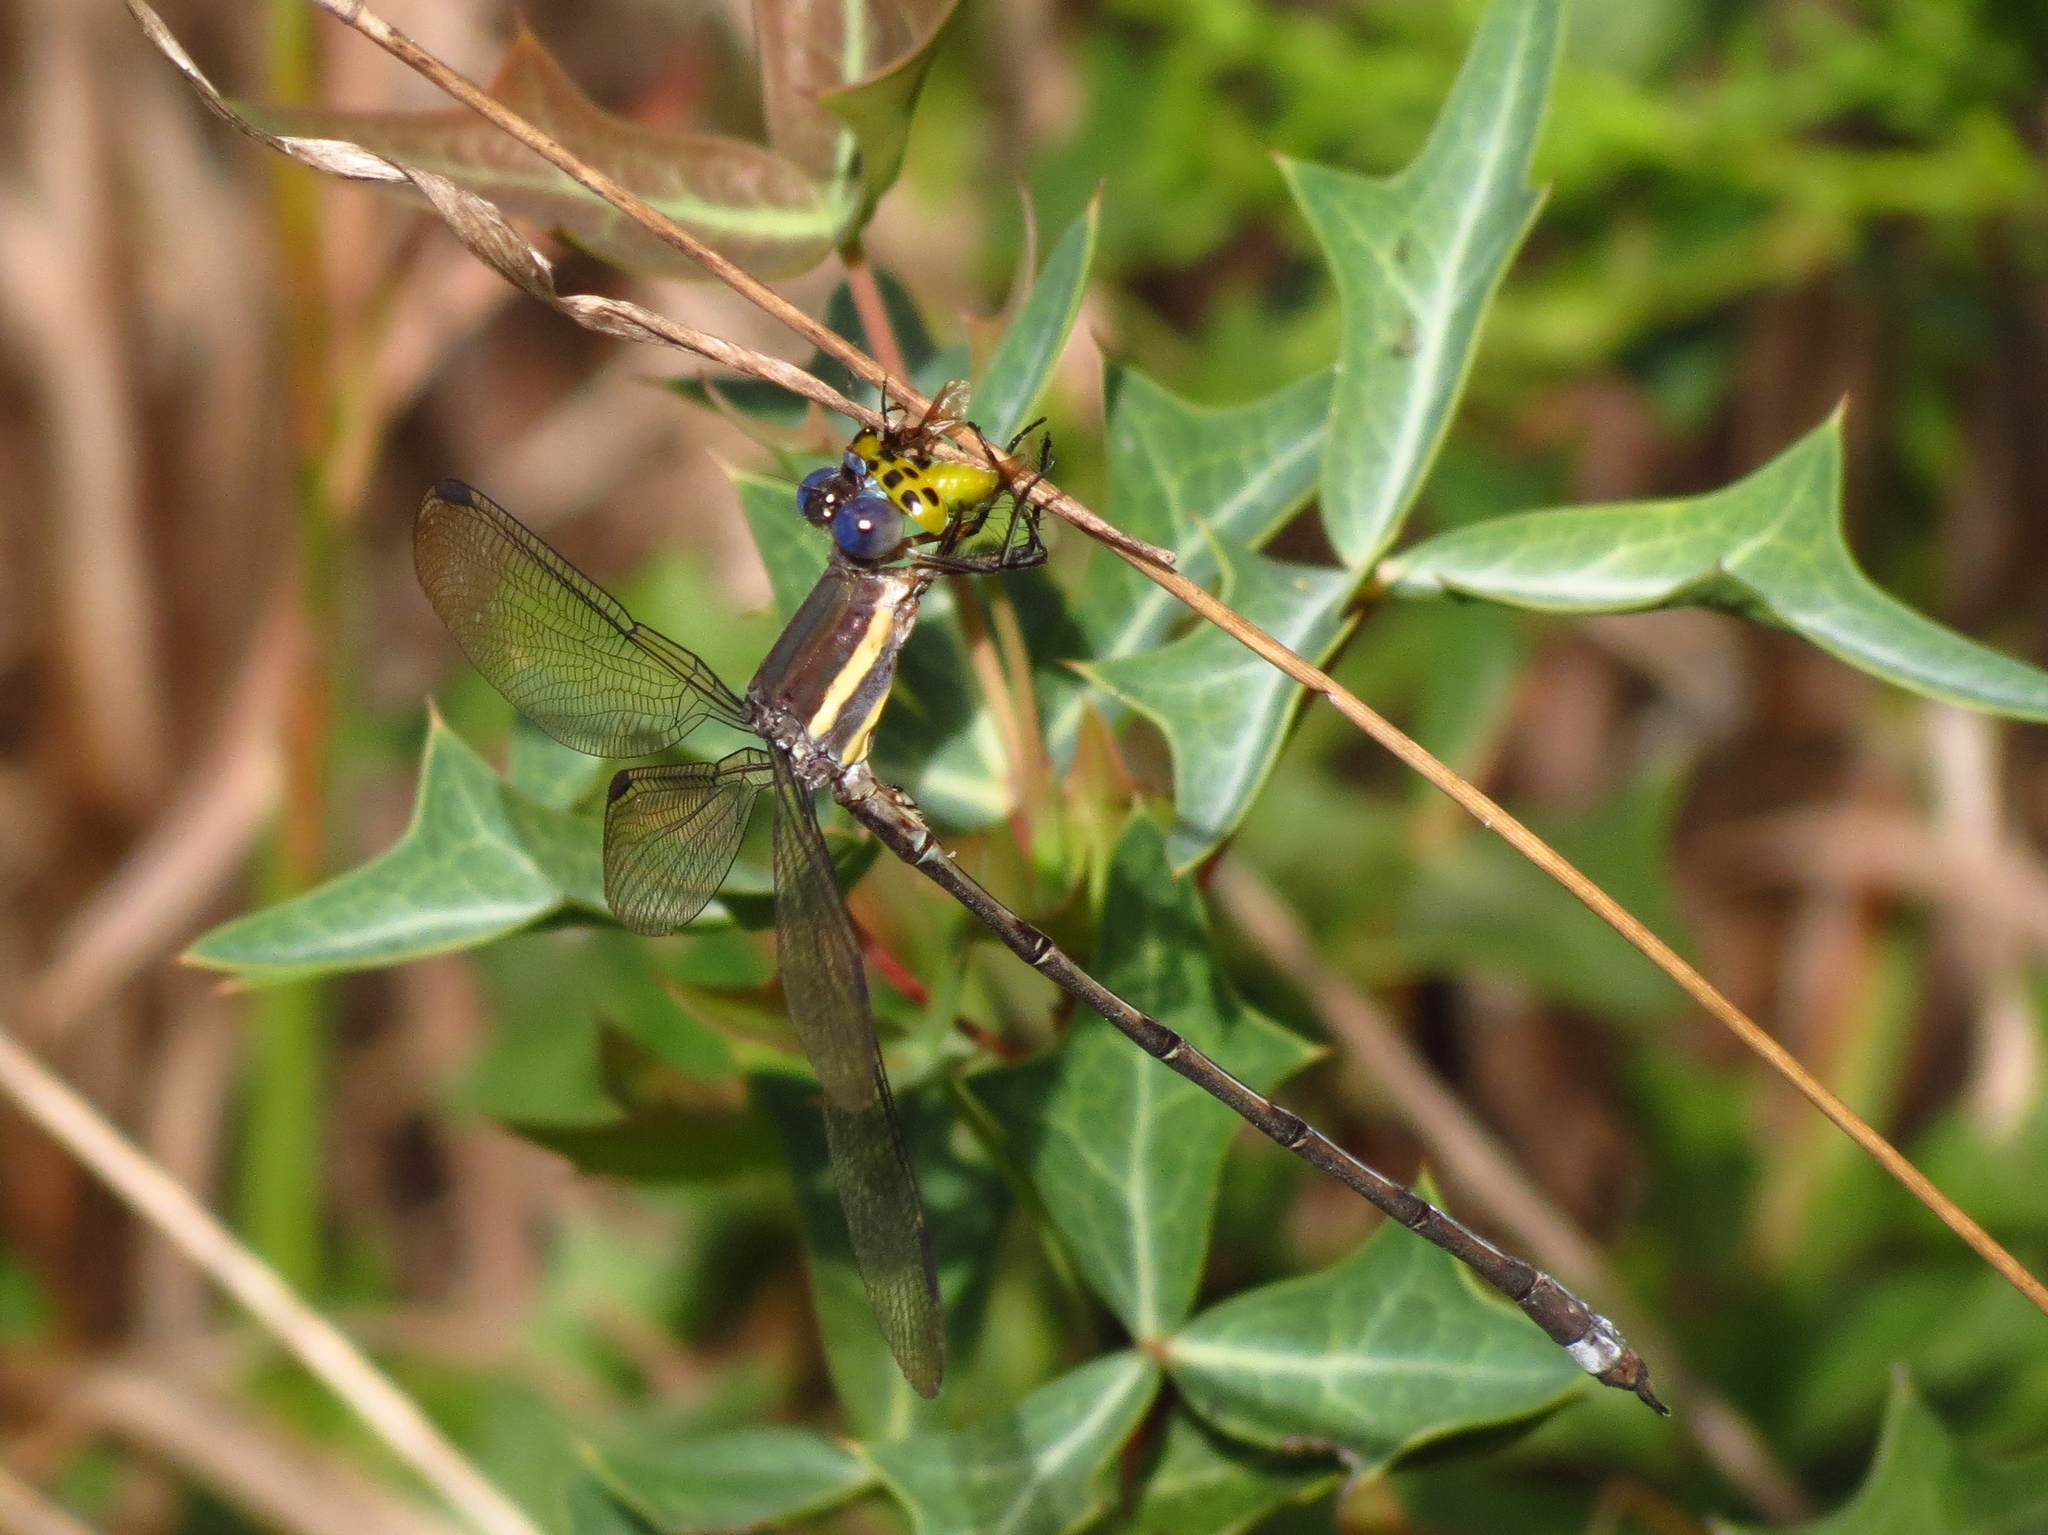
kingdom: Animalia
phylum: Arthropoda
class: Insecta
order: Odonata
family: Lestidae
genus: Archilestes
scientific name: Archilestes grandis
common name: Great spreadwing
